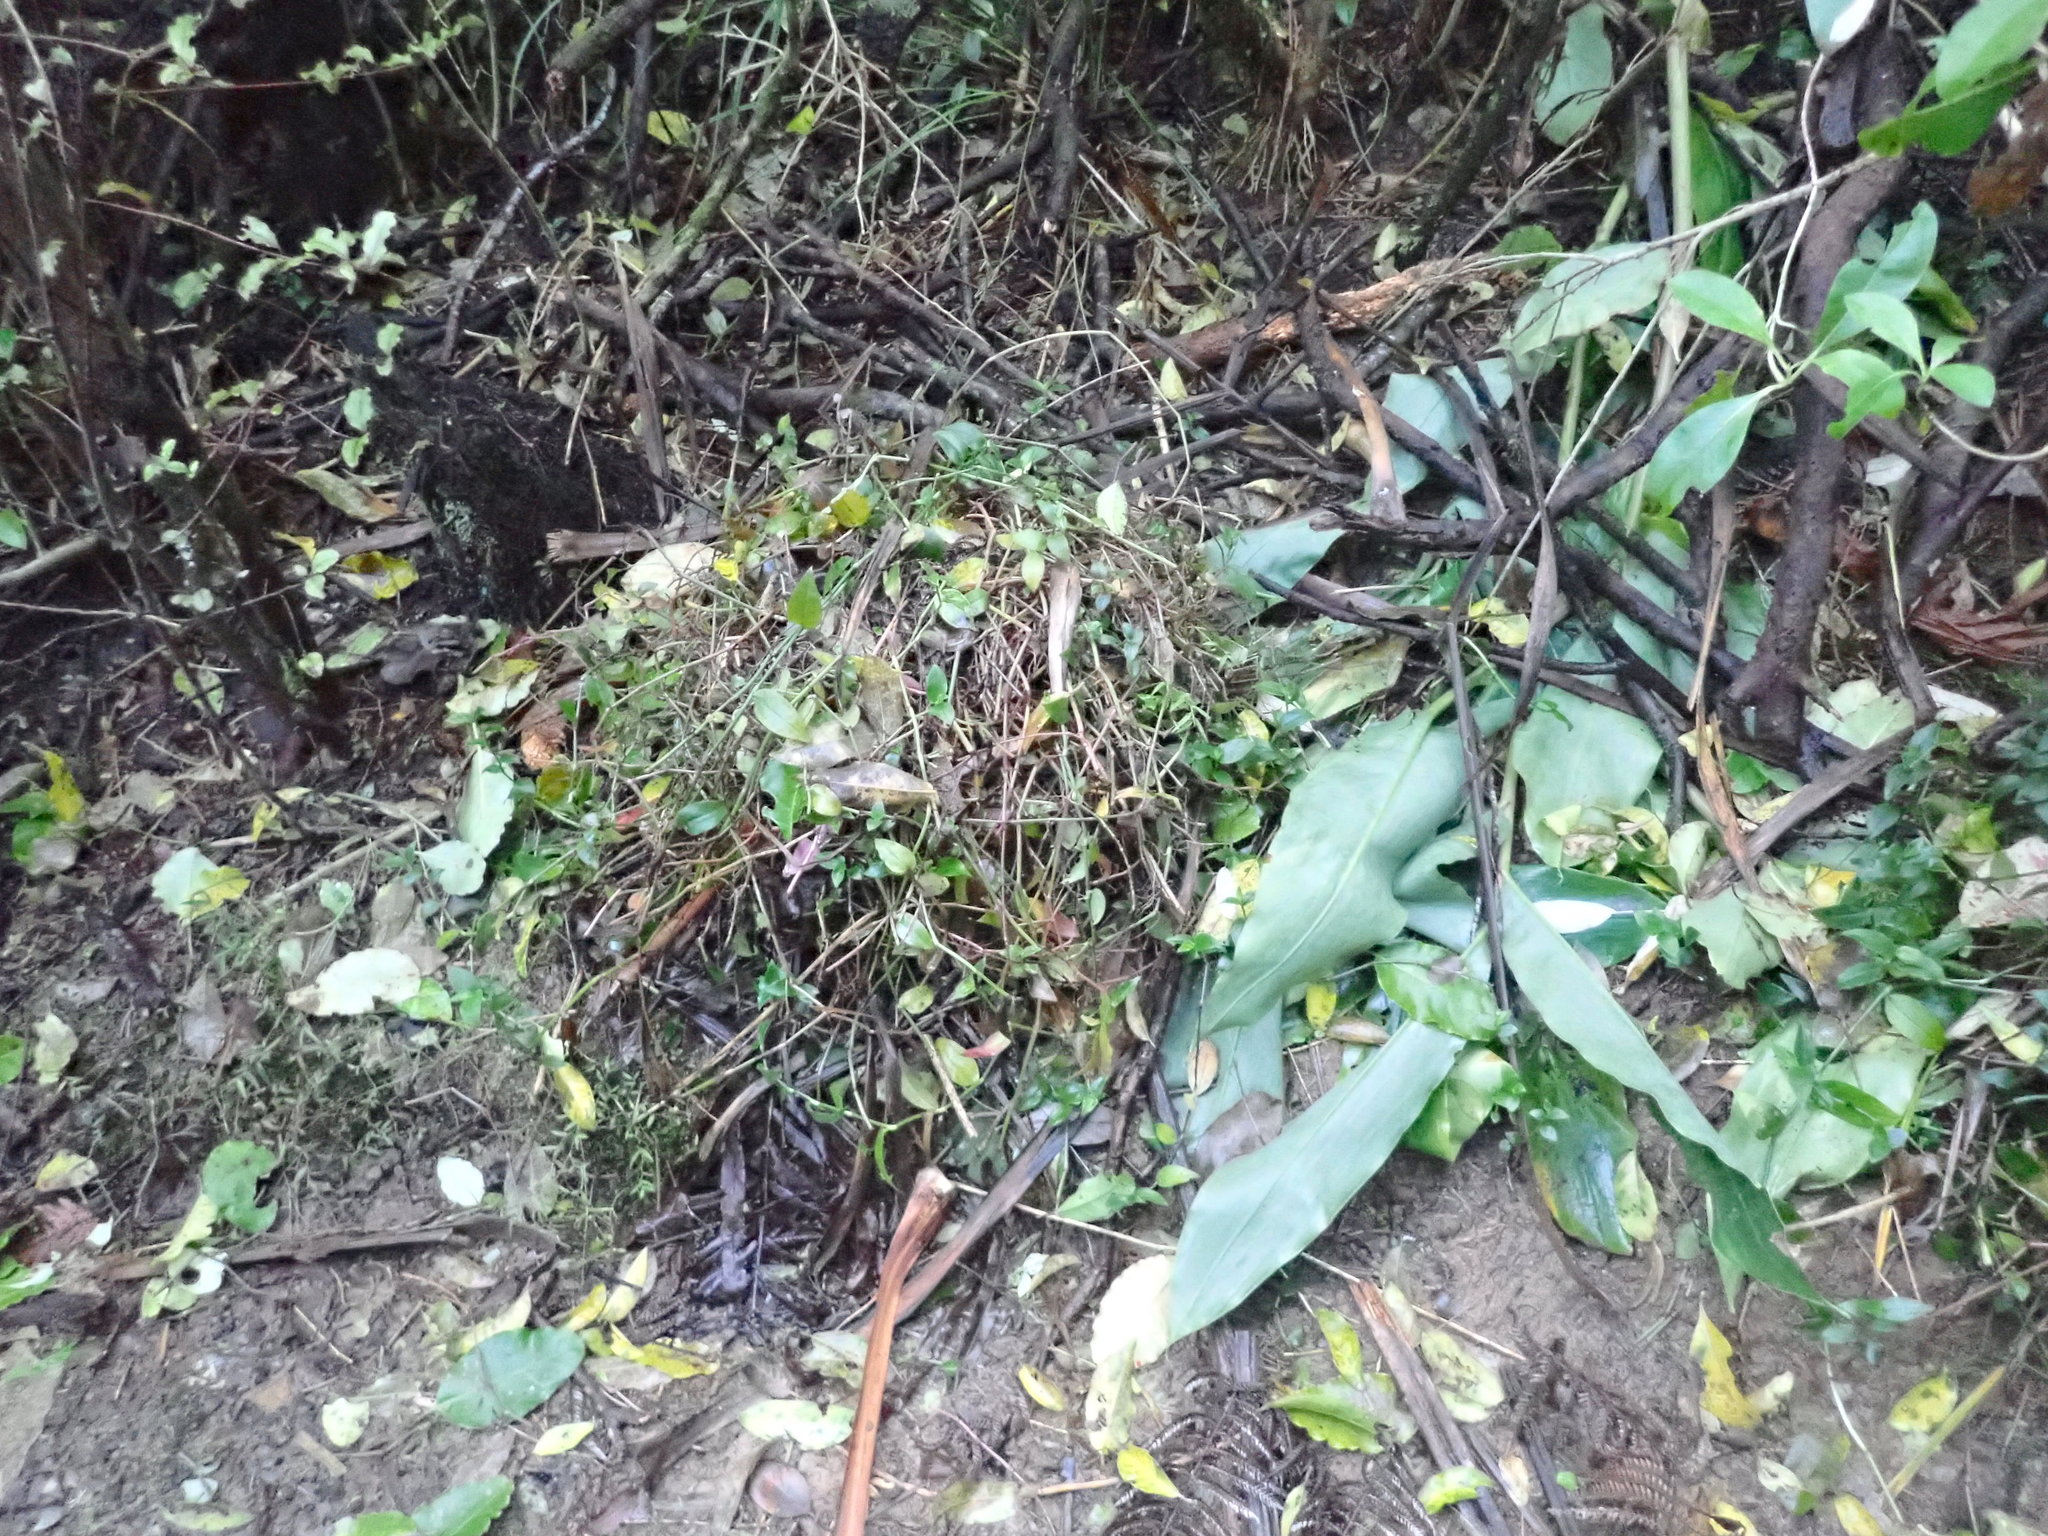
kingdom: Plantae
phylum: Tracheophyta
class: Liliopsida
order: Commelinales
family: Commelinaceae
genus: Tradescantia
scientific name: Tradescantia fluminensis
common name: Wandering-jew
